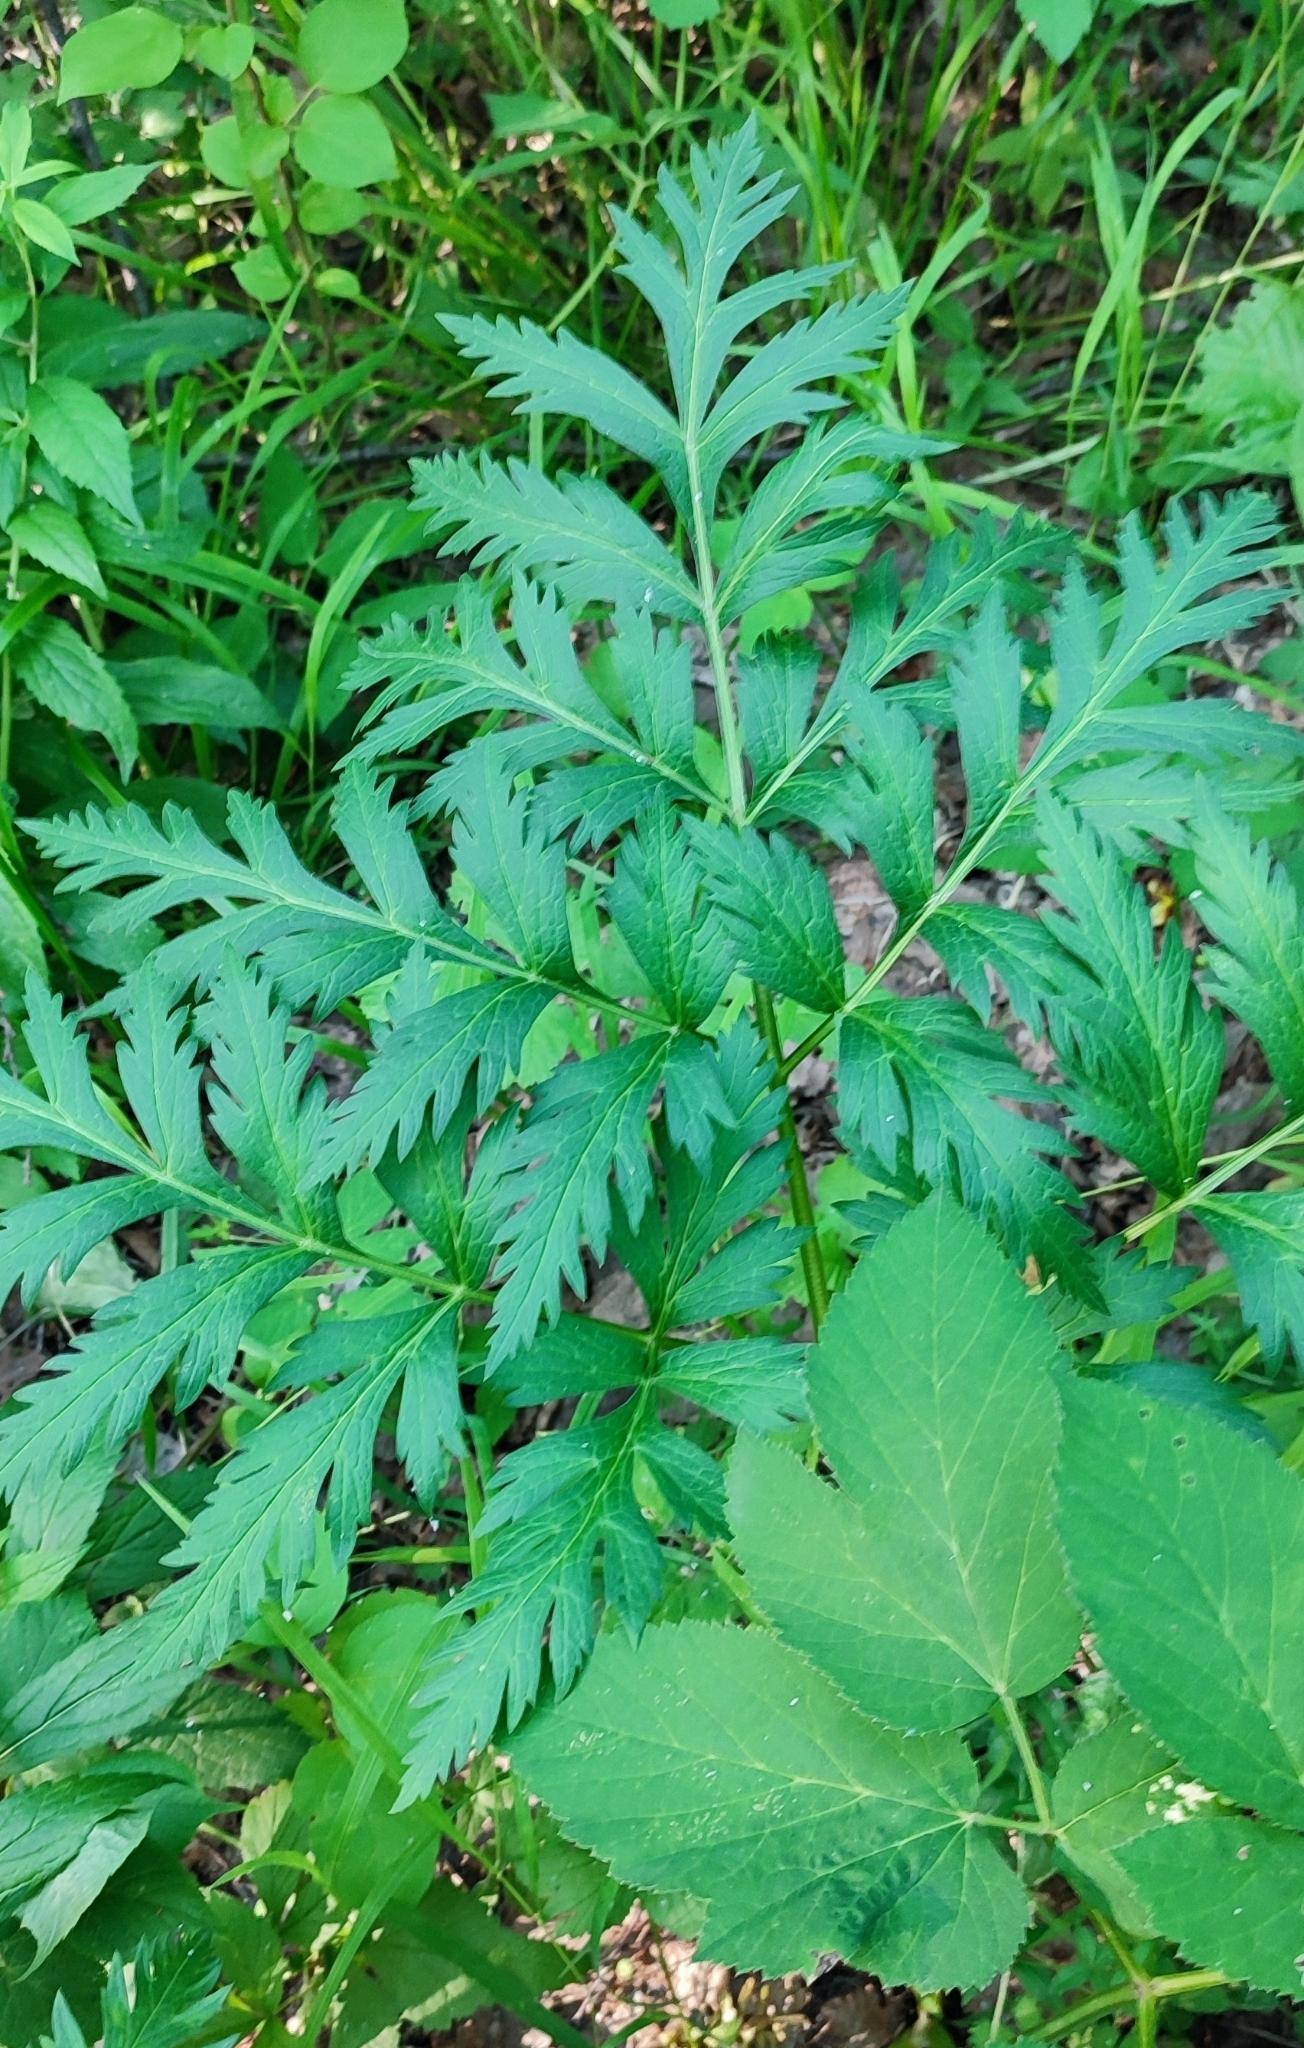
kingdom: Plantae
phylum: Tracheophyta
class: Magnoliopsida
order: Apiales
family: Apiaceae
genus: Pleurospermum
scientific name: Pleurospermum uralense
